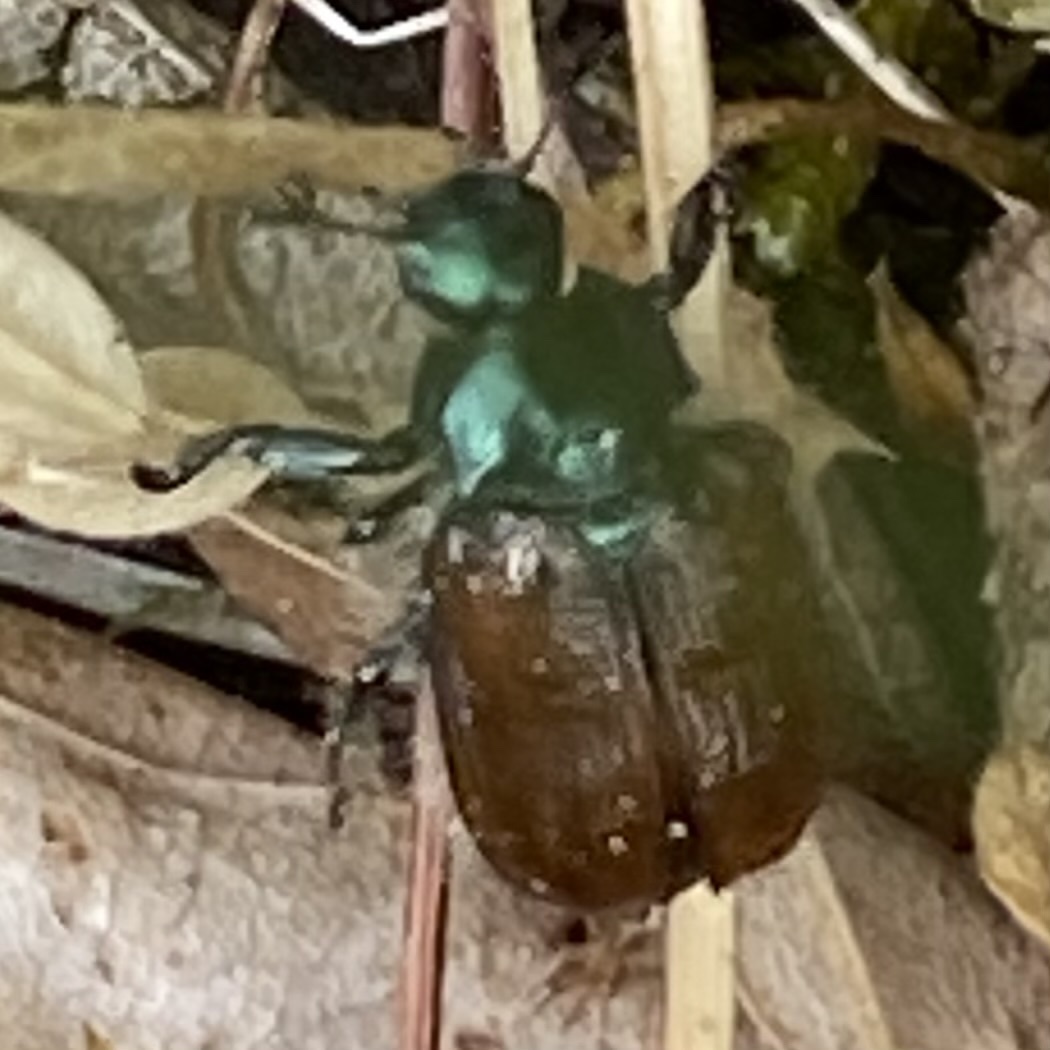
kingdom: Animalia
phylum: Arthropoda
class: Insecta
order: Coleoptera
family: Scarabaeidae
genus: Phyllopertha
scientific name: Phyllopertha horticola
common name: Garden chafer
